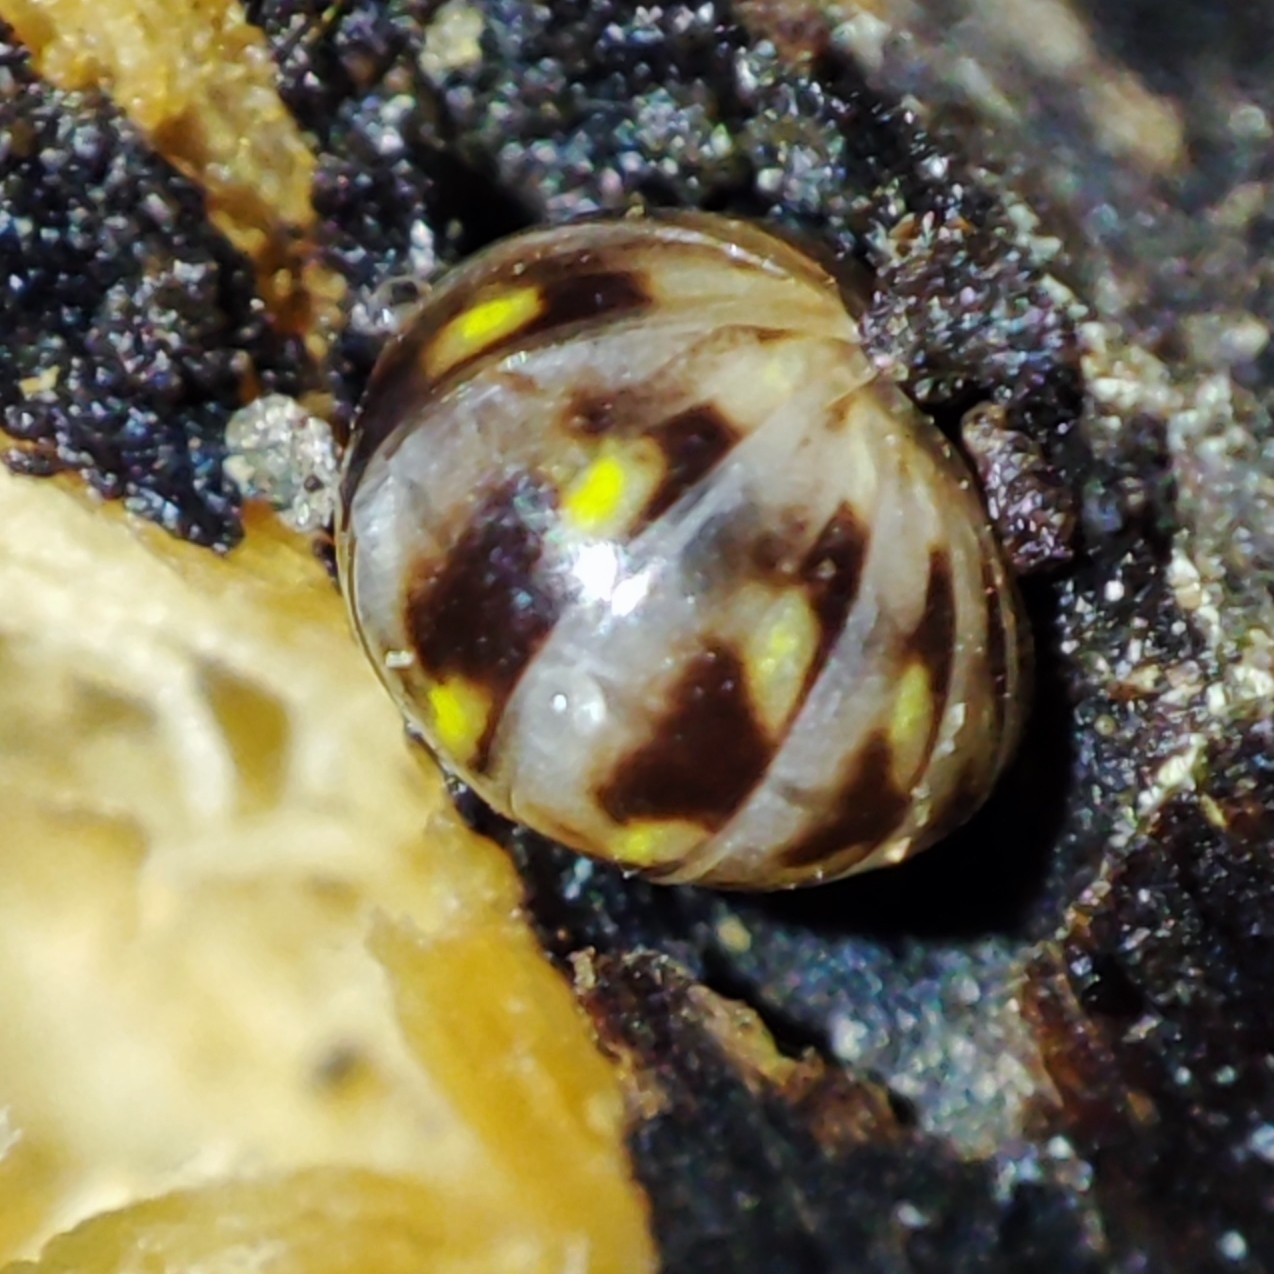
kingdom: Animalia
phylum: Arthropoda
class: Diplopoda
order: Glomerida
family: Glomeridae
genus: Glomeris
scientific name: Glomeris hexasticha
